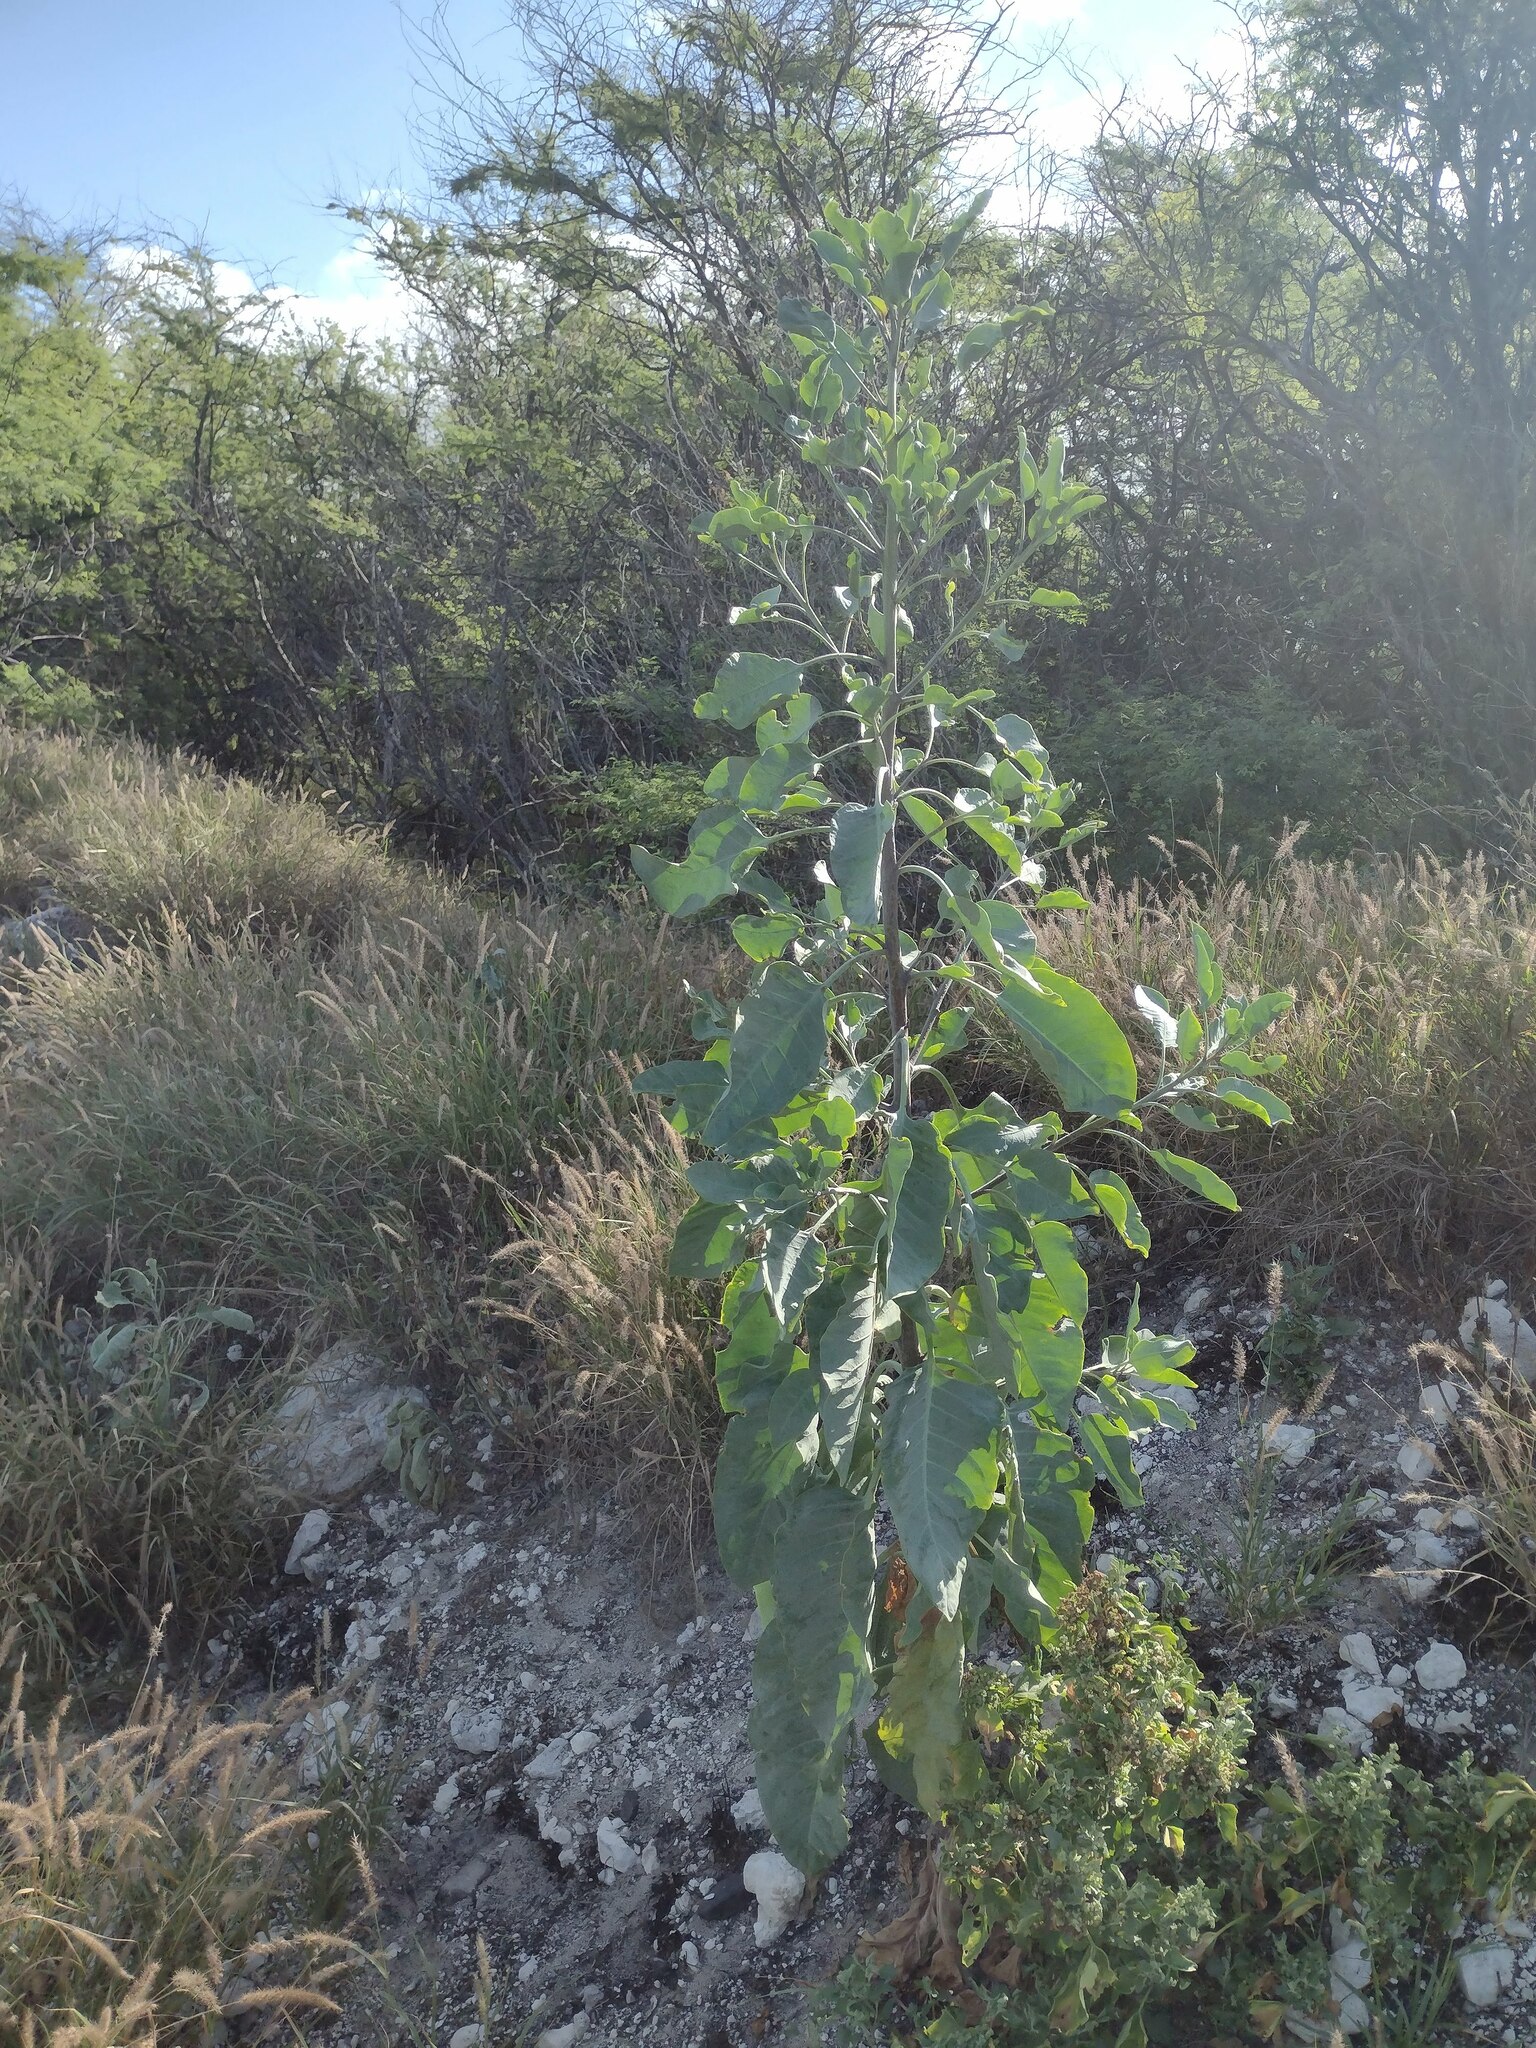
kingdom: Plantae
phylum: Tracheophyta
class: Magnoliopsida
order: Solanales
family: Solanaceae
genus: Nicotiana
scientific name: Nicotiana glauca
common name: Tree tobacco
